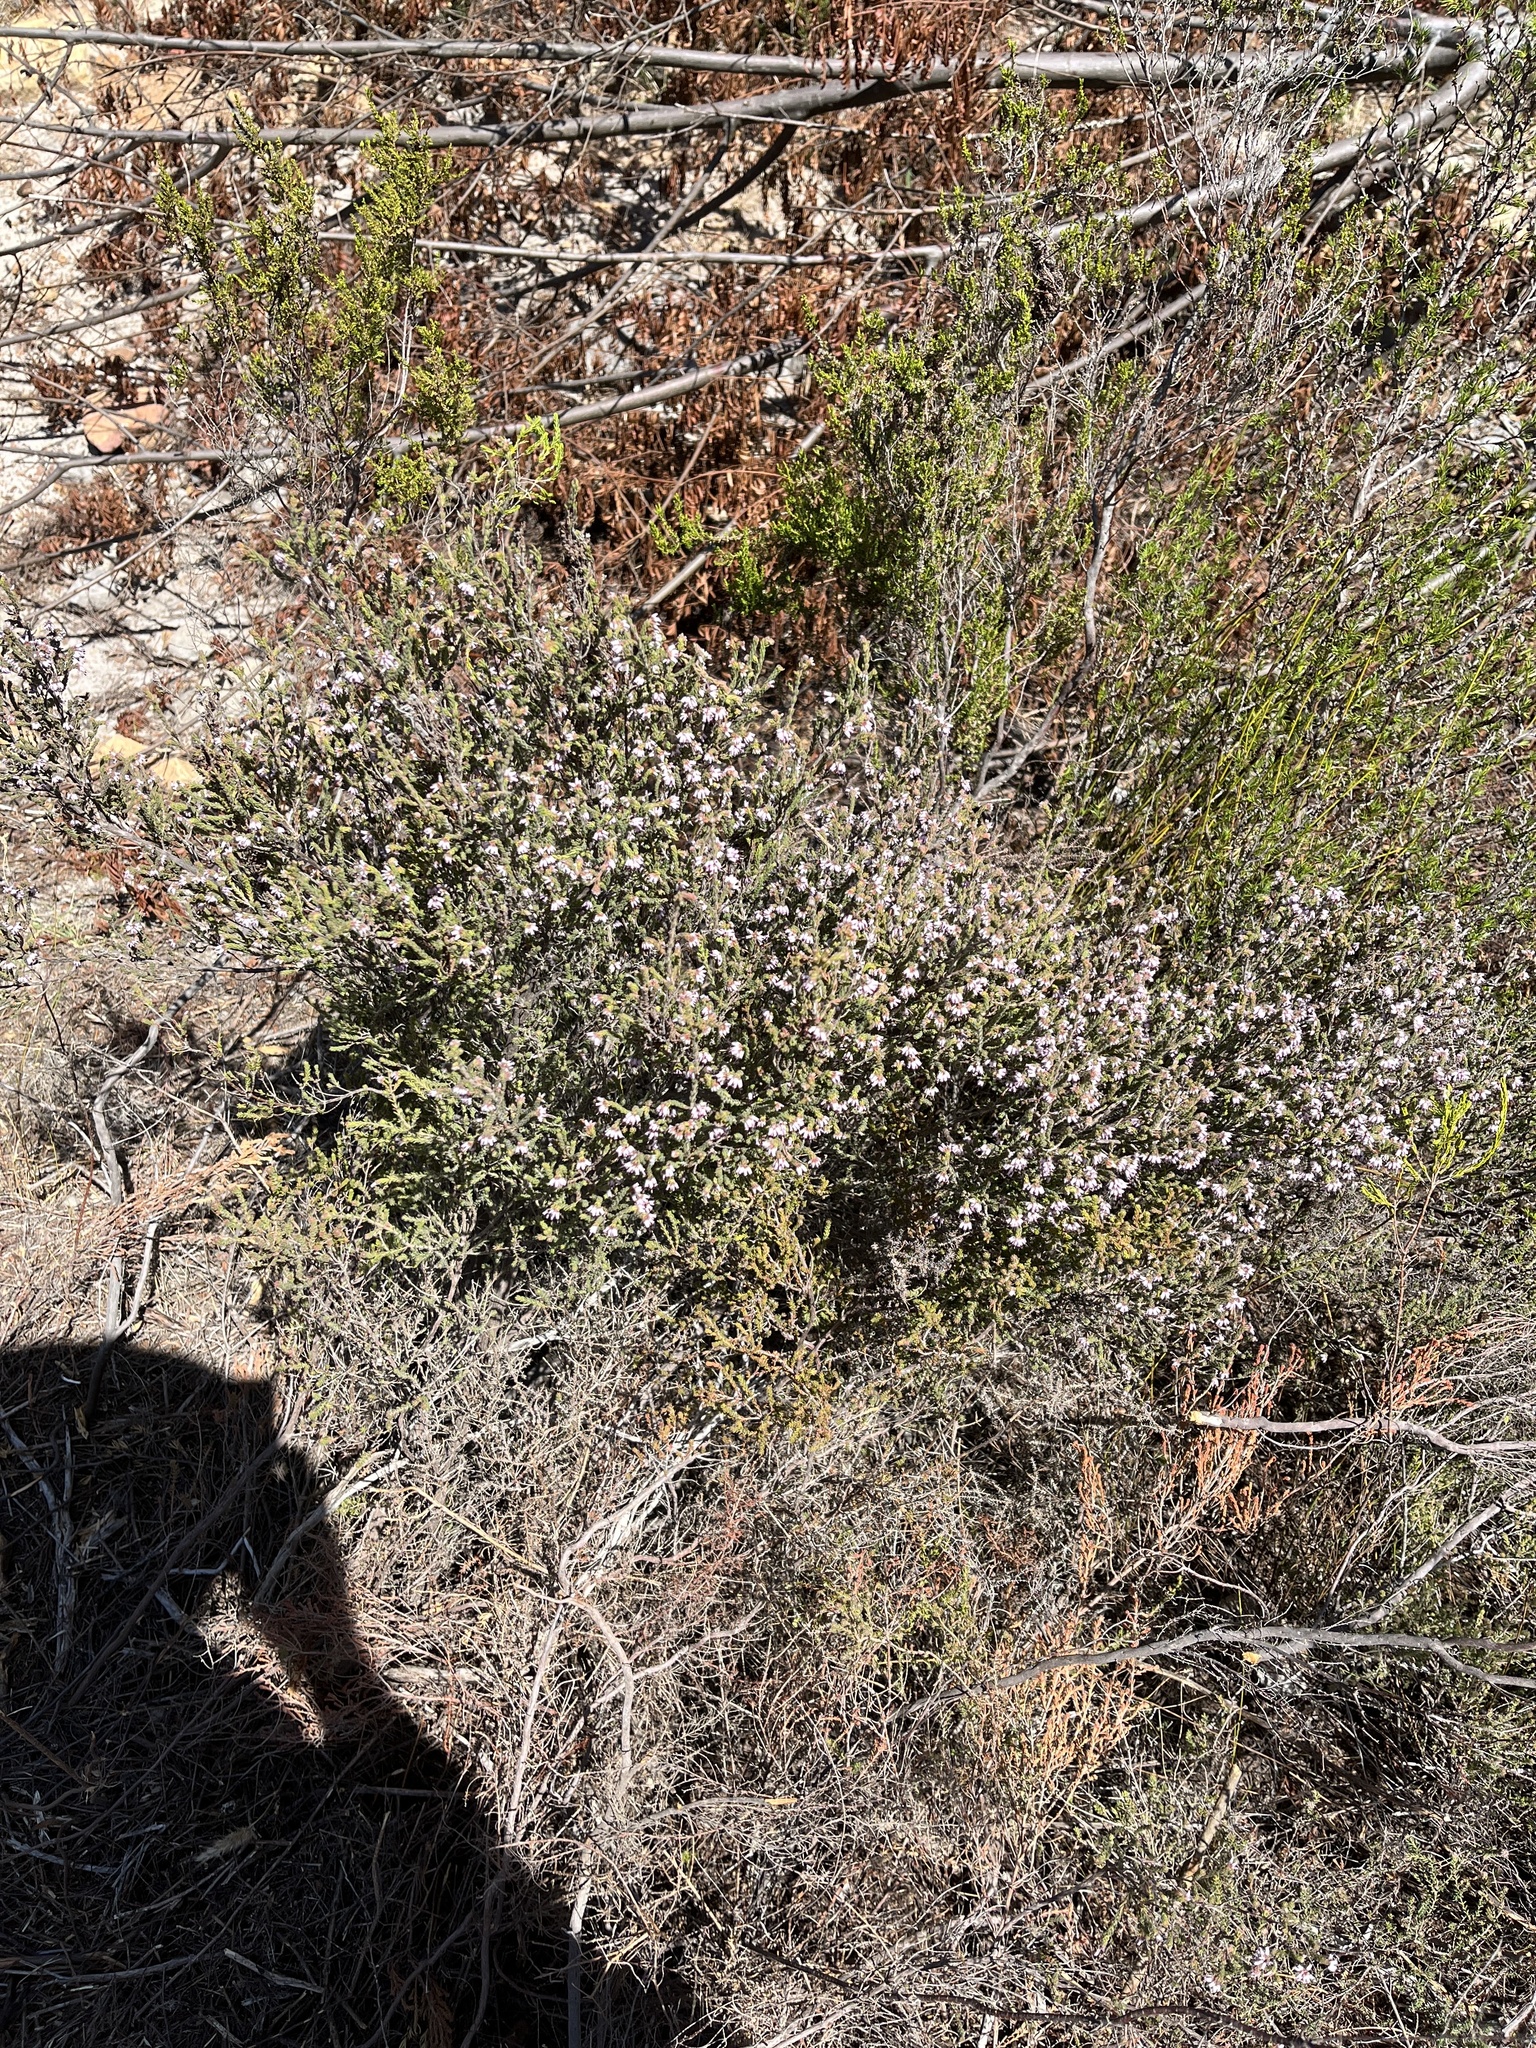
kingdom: Plantae
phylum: Tracheophyta
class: Magnoliopsida
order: Ericales
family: Ericaceae
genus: Erica
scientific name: Erica ericoides
